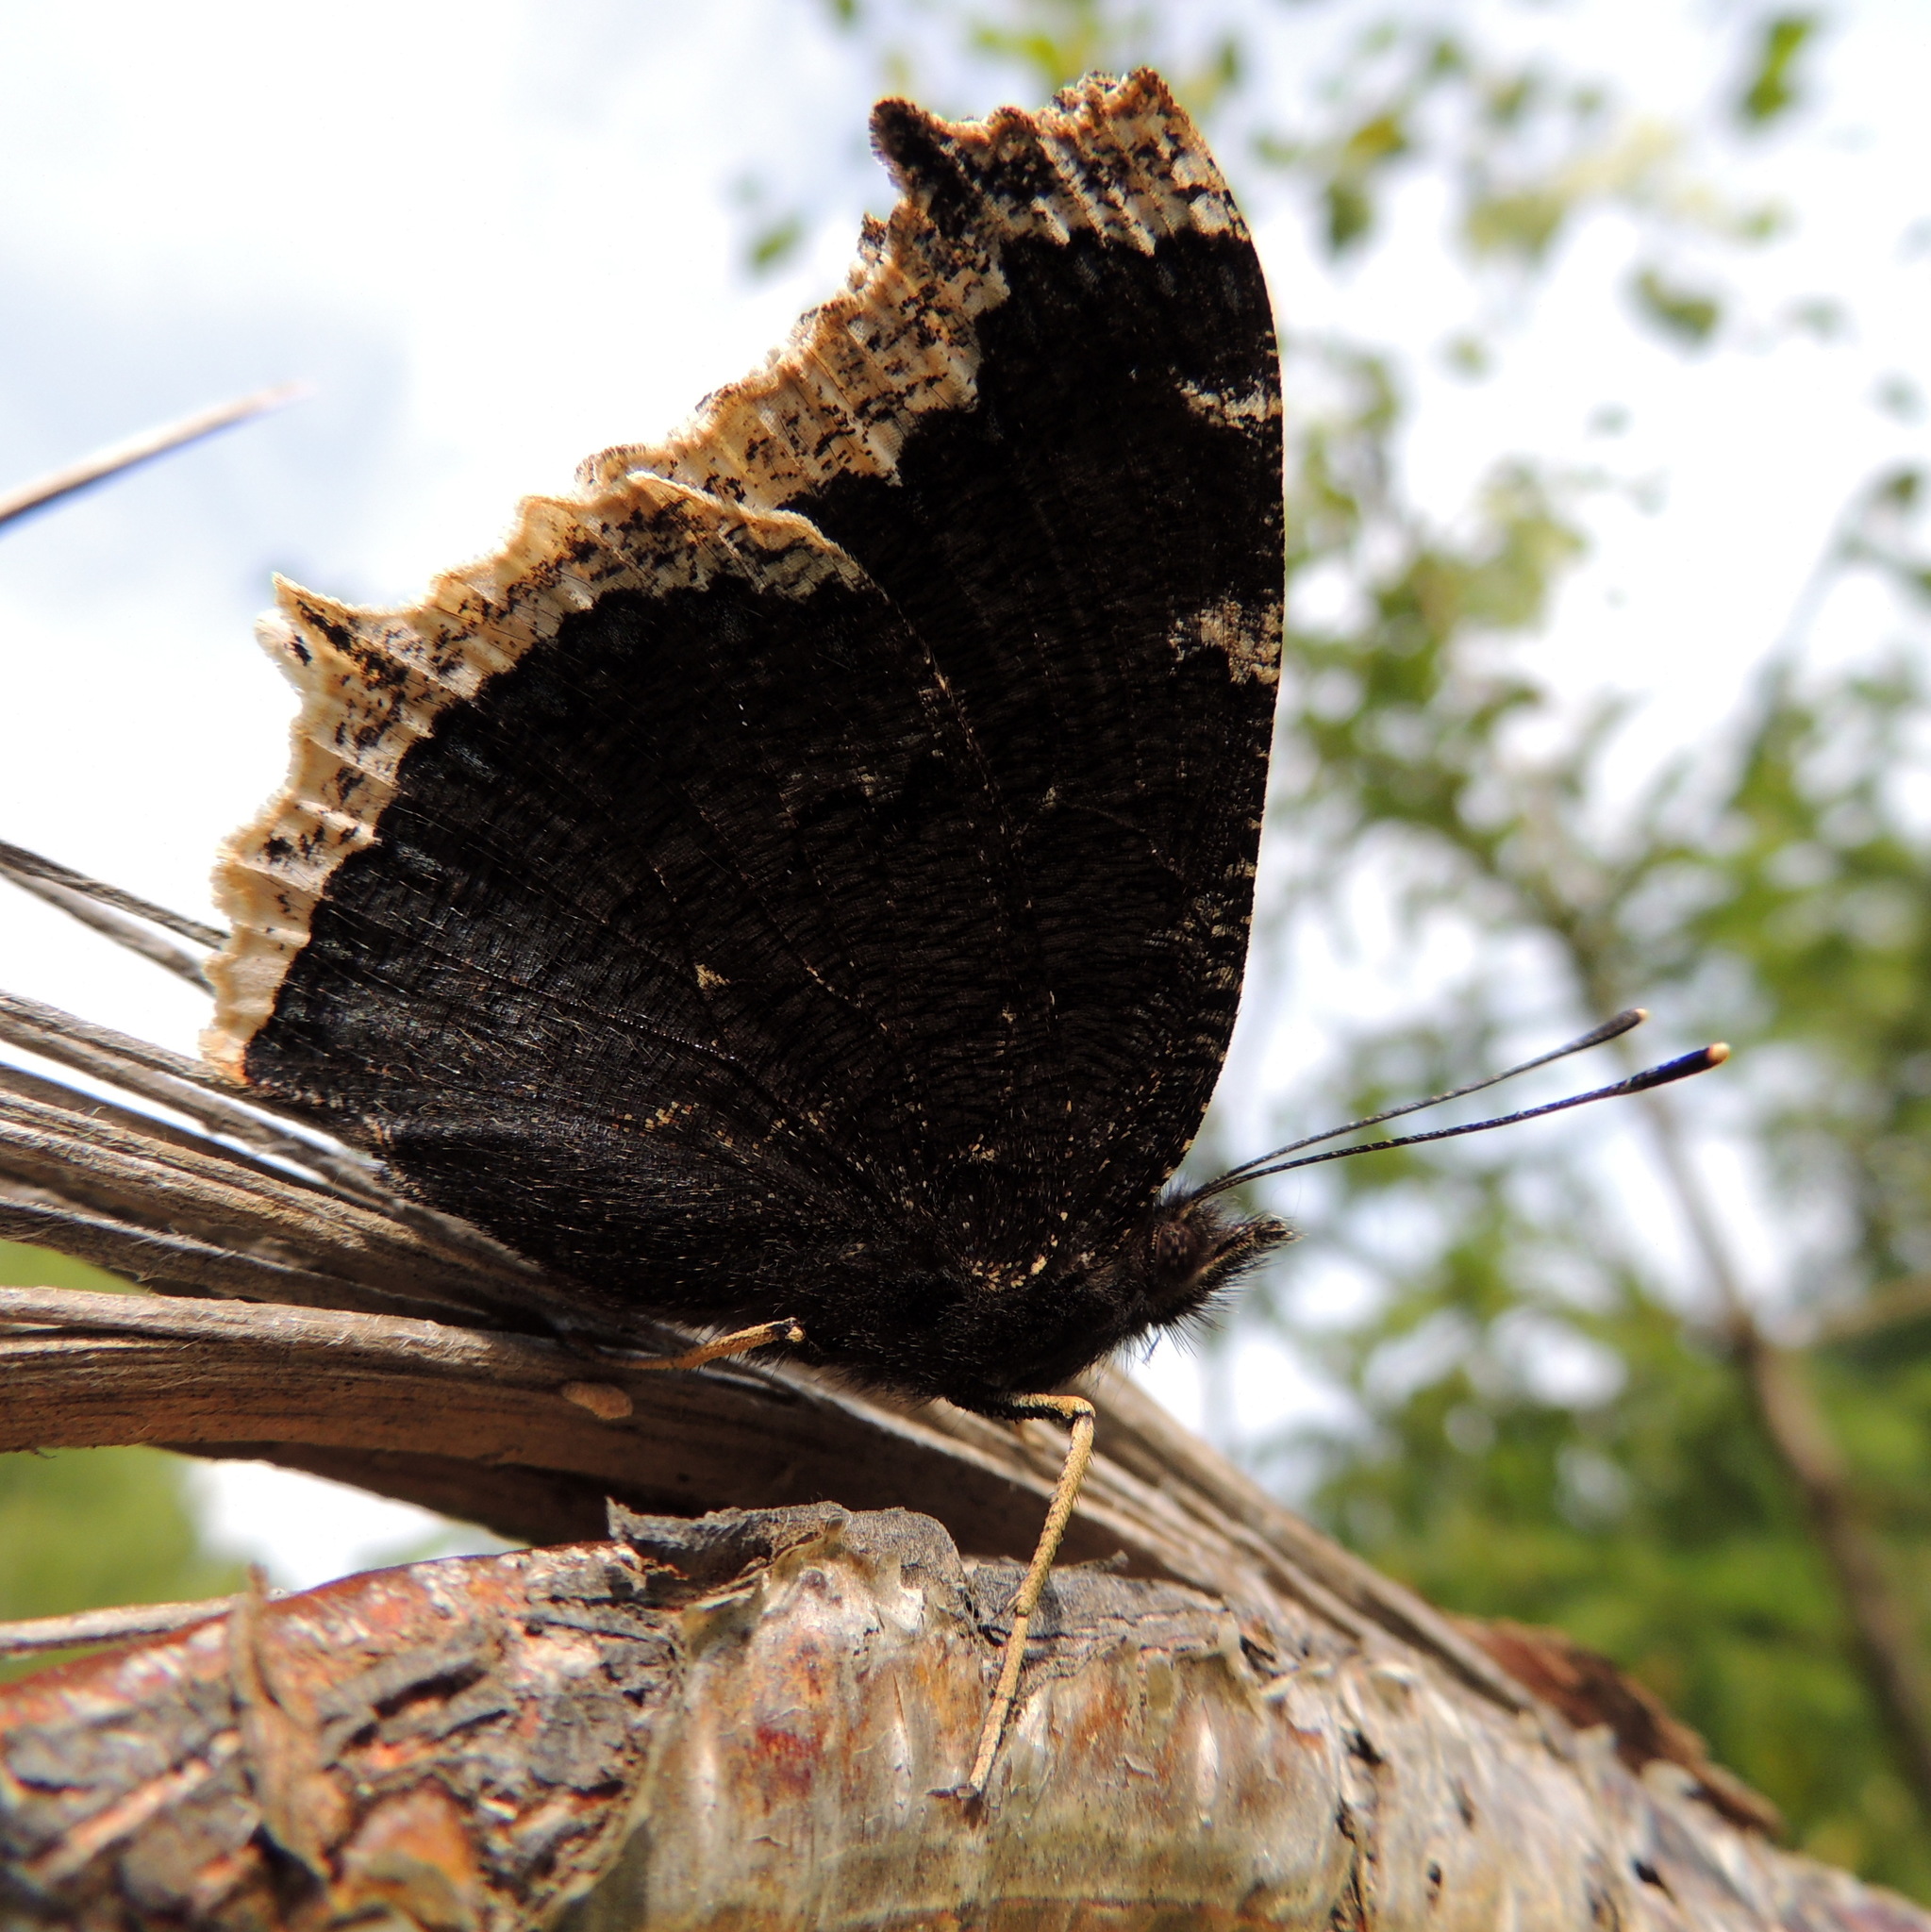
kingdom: Animalia
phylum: Arthropoda
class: Insecta
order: Lepidoptera
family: Nymphalidae
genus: Nymphalis
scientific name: Nymphalis antiopa
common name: Camberwell beauty
